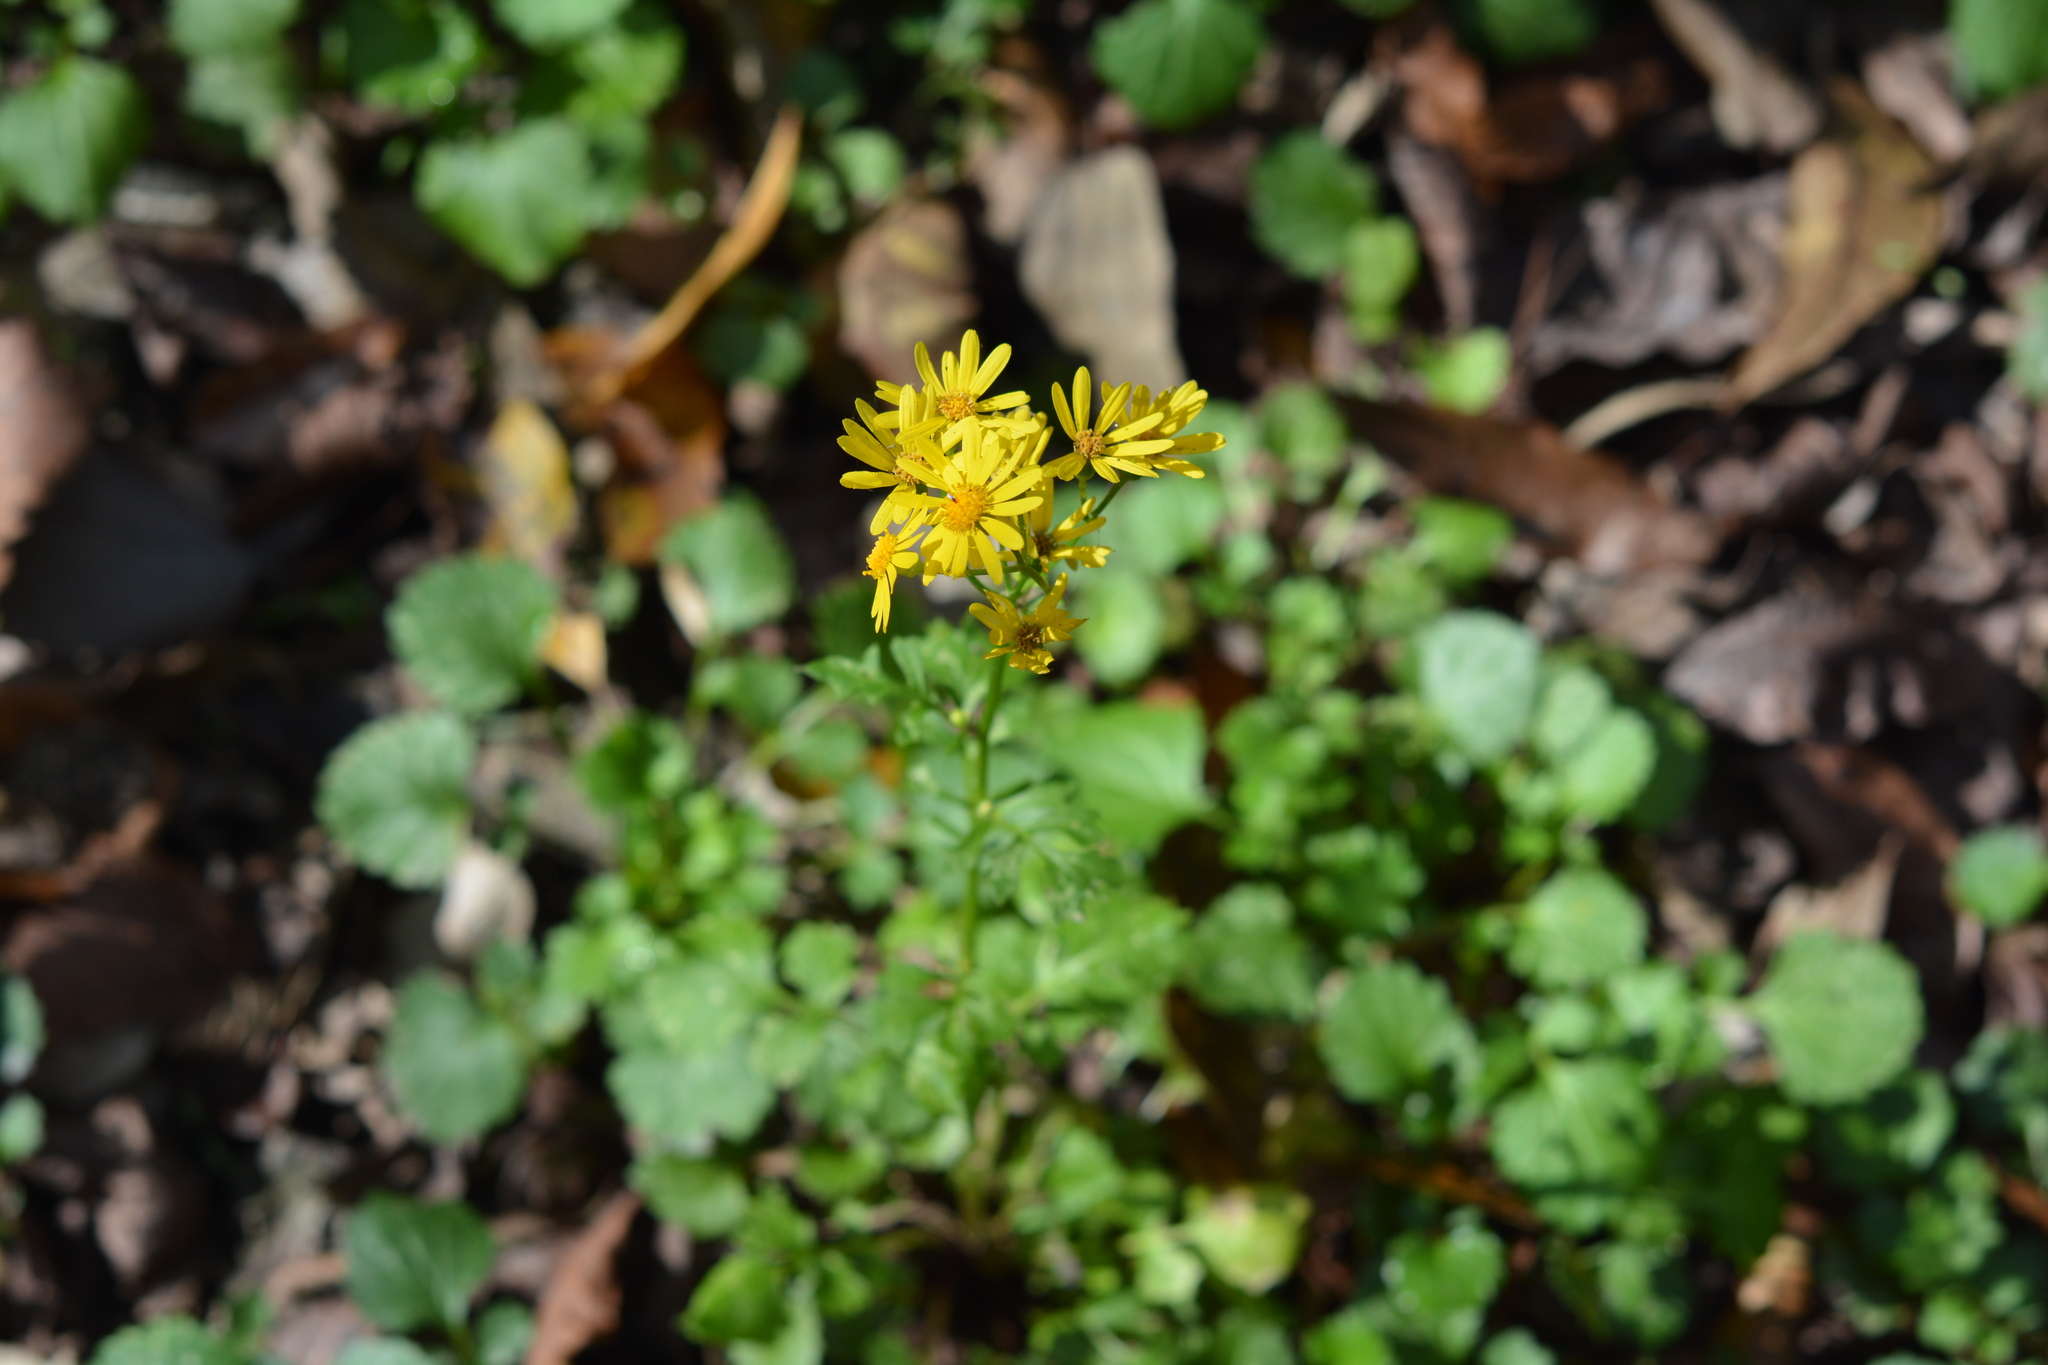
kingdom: Plantae
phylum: Tracheophyta
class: Magnoliopsida
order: Asterales
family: Asteraceae
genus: Packera
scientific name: Packera glabella
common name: Butterweed
